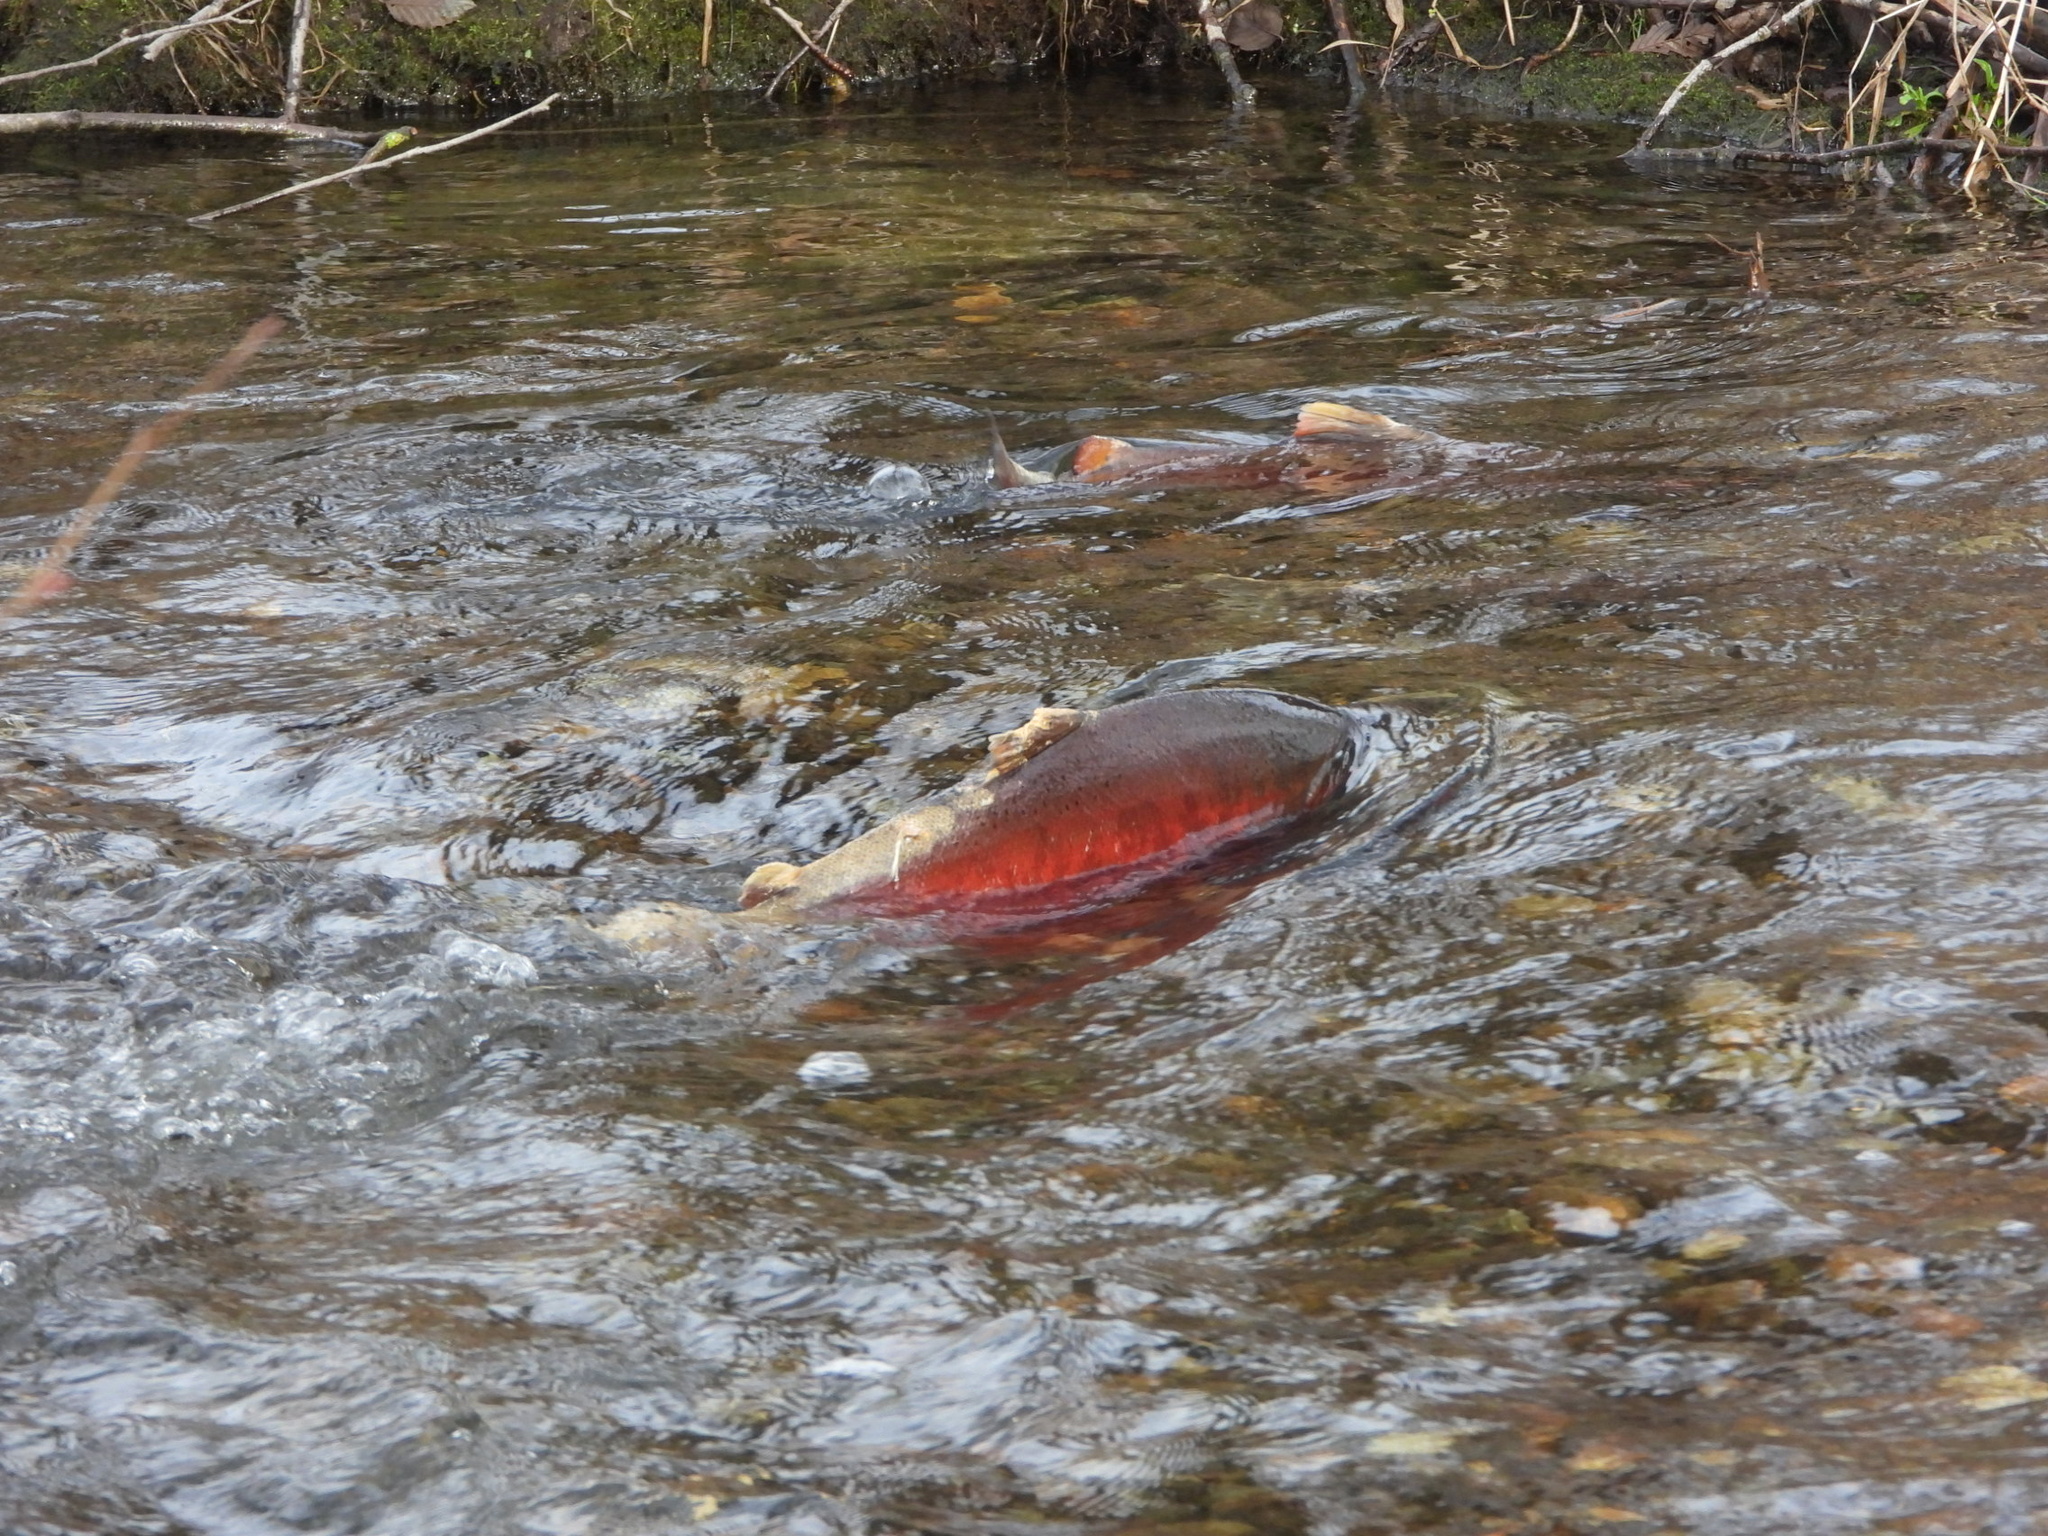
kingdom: Animalia
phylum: Chordata
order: Salmoniformes
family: Salmonidae
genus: Oncorhynchus
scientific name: Oncorhynchus kisutch
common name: Coho salmon
